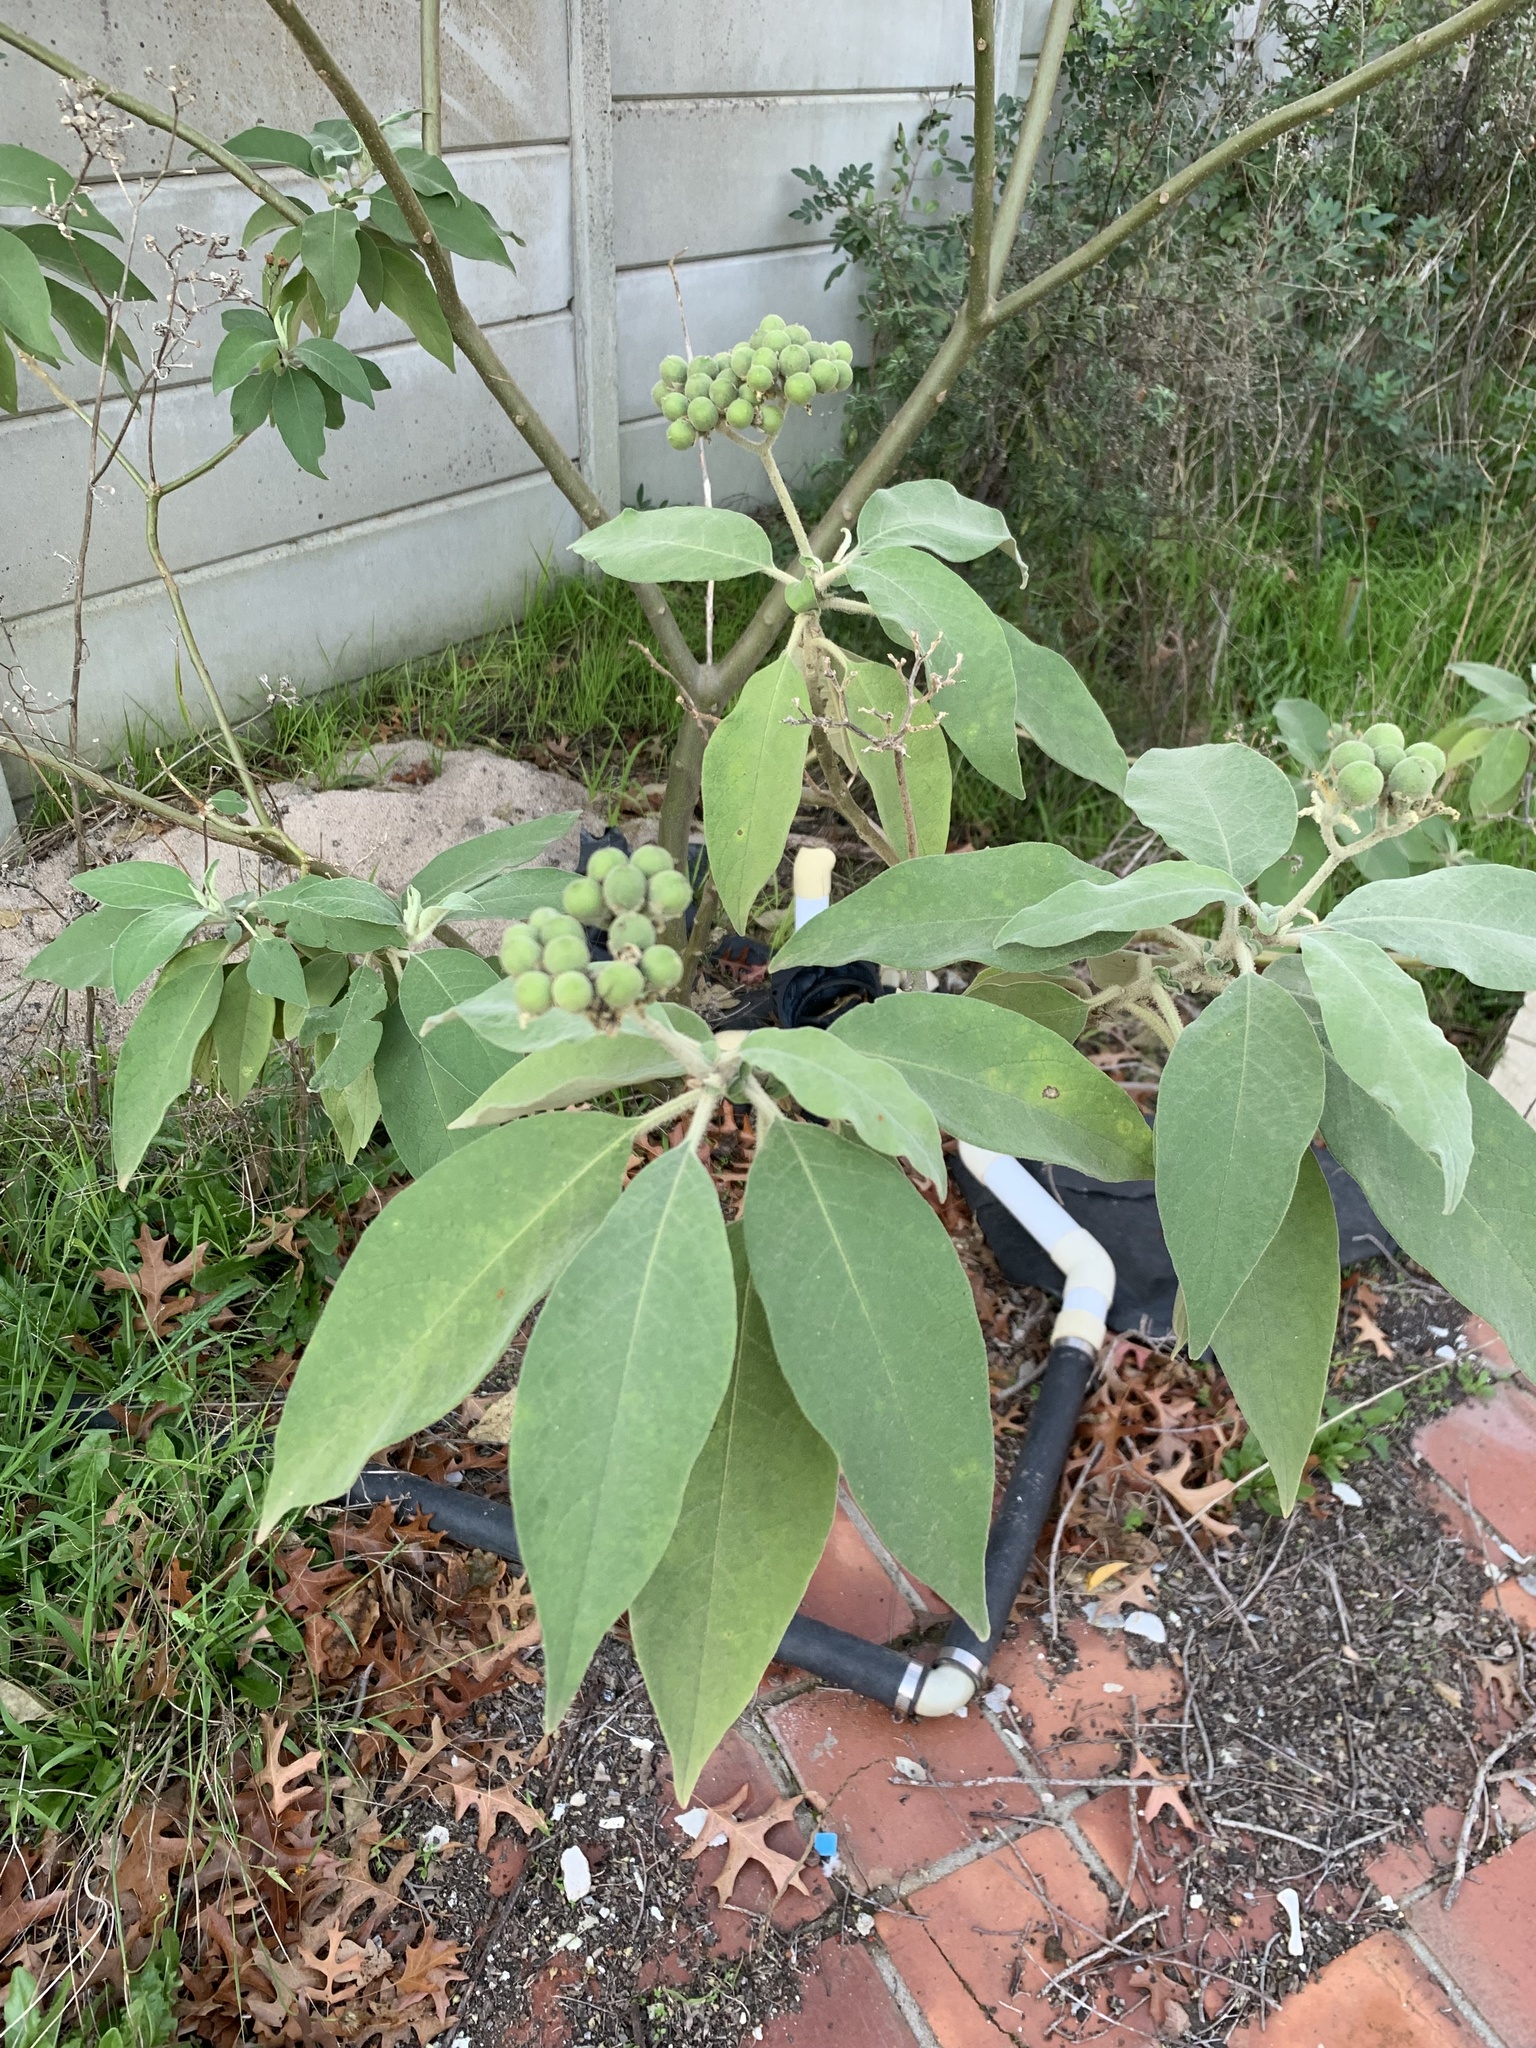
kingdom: Plantae
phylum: Tracheophyta
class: Magnoliopsida
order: Solanales
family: Solanaceae
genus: Solanum
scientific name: Solanum mauritianum
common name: Earleaf nightshade
